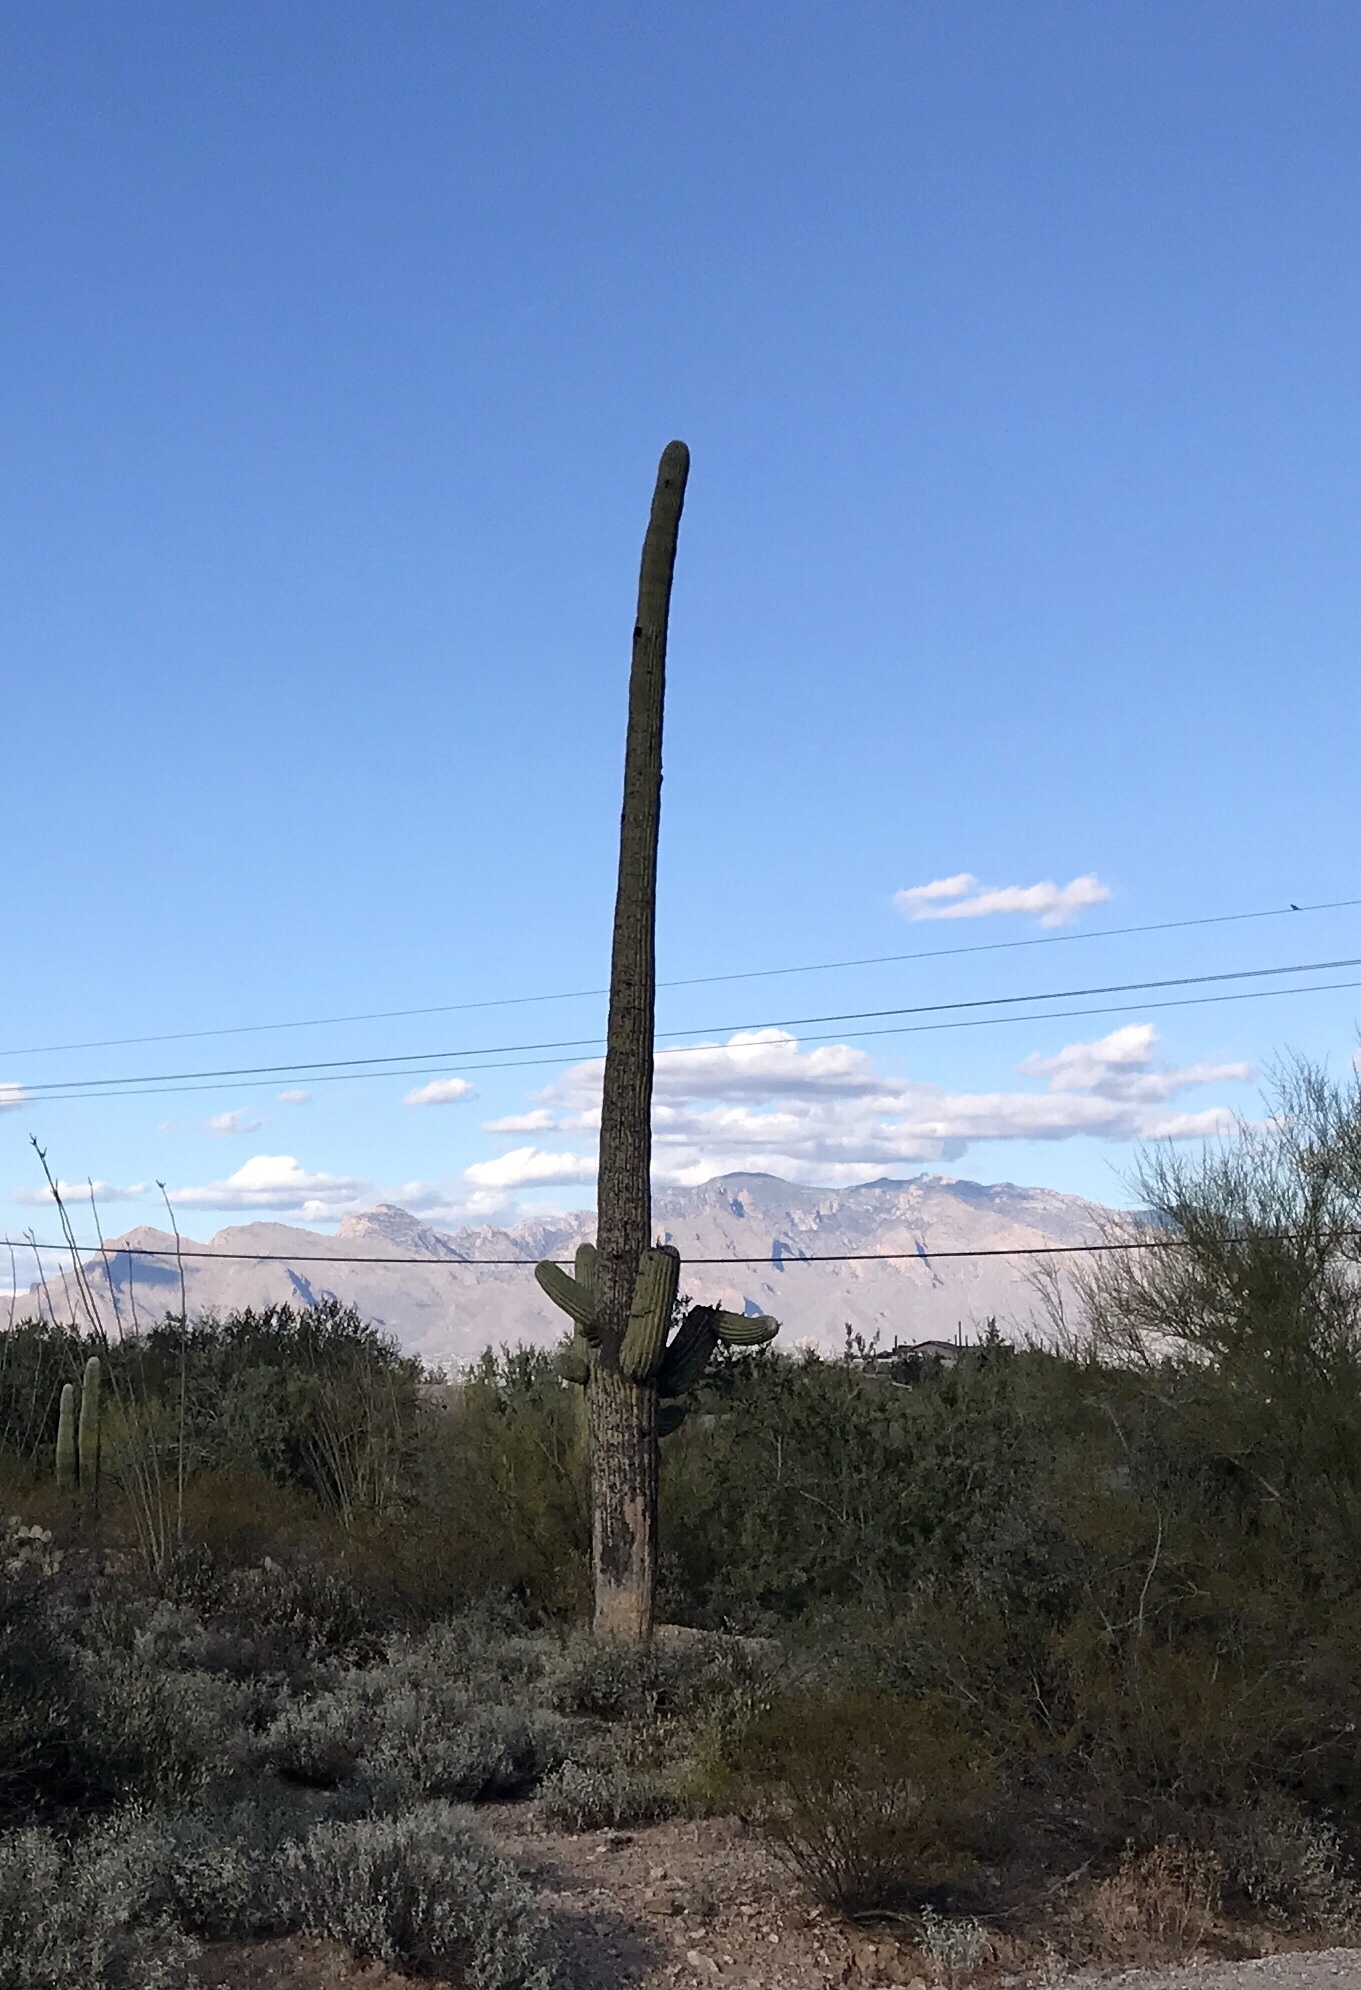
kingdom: Plantae
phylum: Tracheophyta
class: Magnoliopsida
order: Caryophyllales
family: Cactaceae
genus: Carnegiea
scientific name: Carnegiea gigantea
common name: Saguaro
